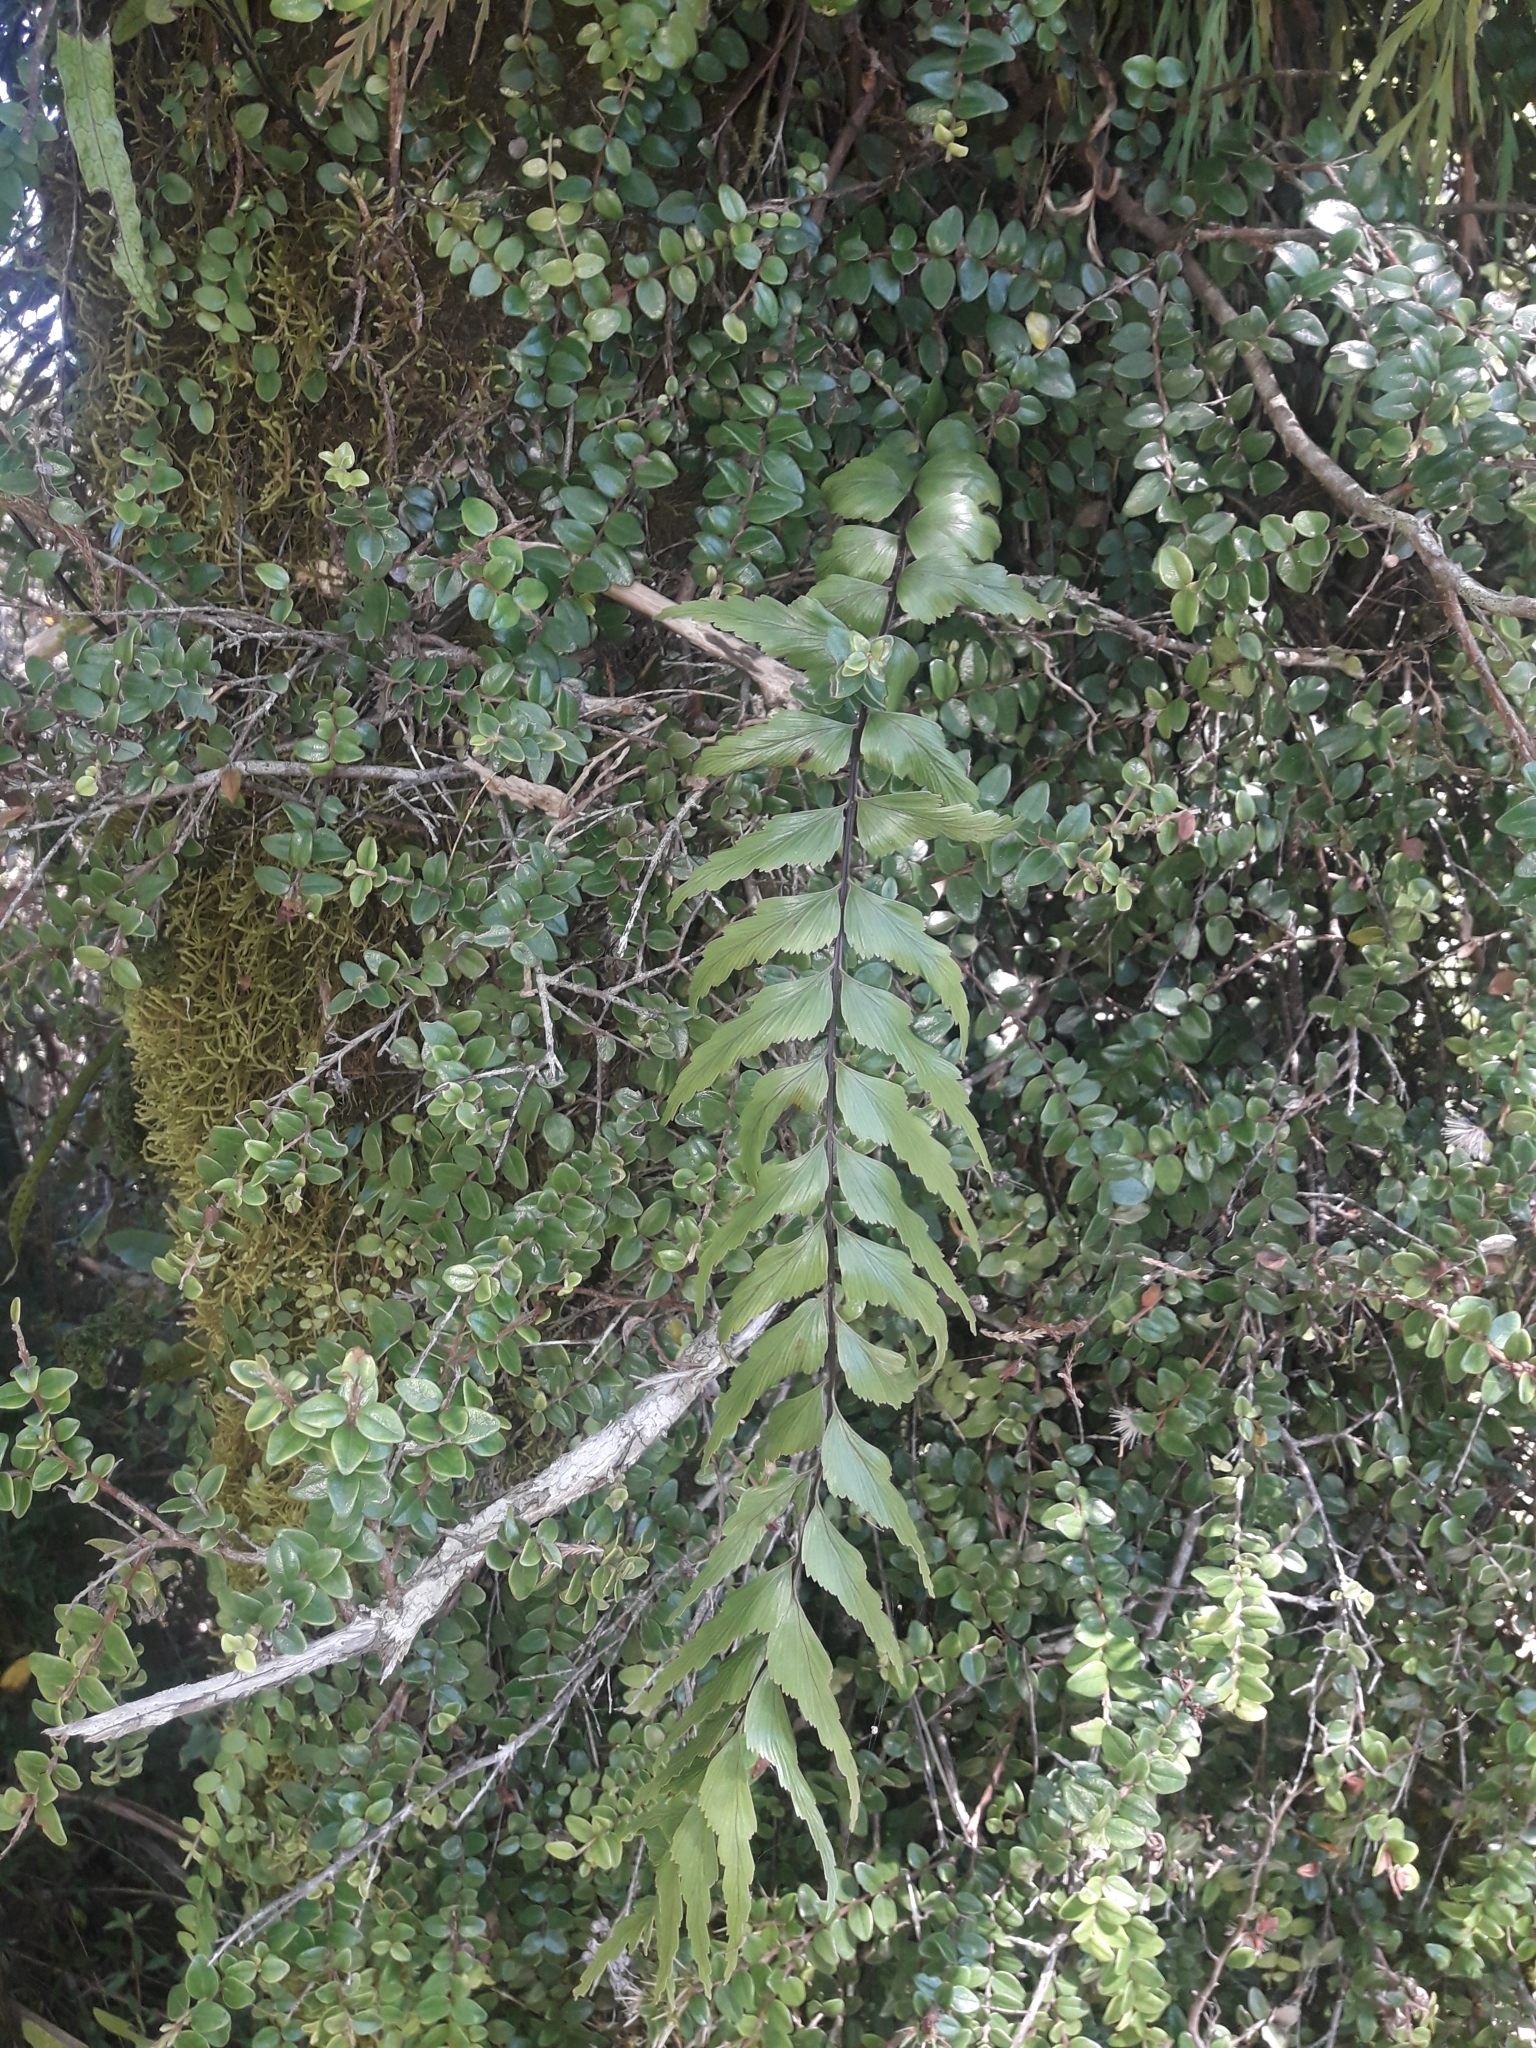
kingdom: Plantae
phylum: Tracheophyta
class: Polypodiopsida
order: Polypodiales
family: Aspleniaceae
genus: Asplenium
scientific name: Asplenium polyodon
